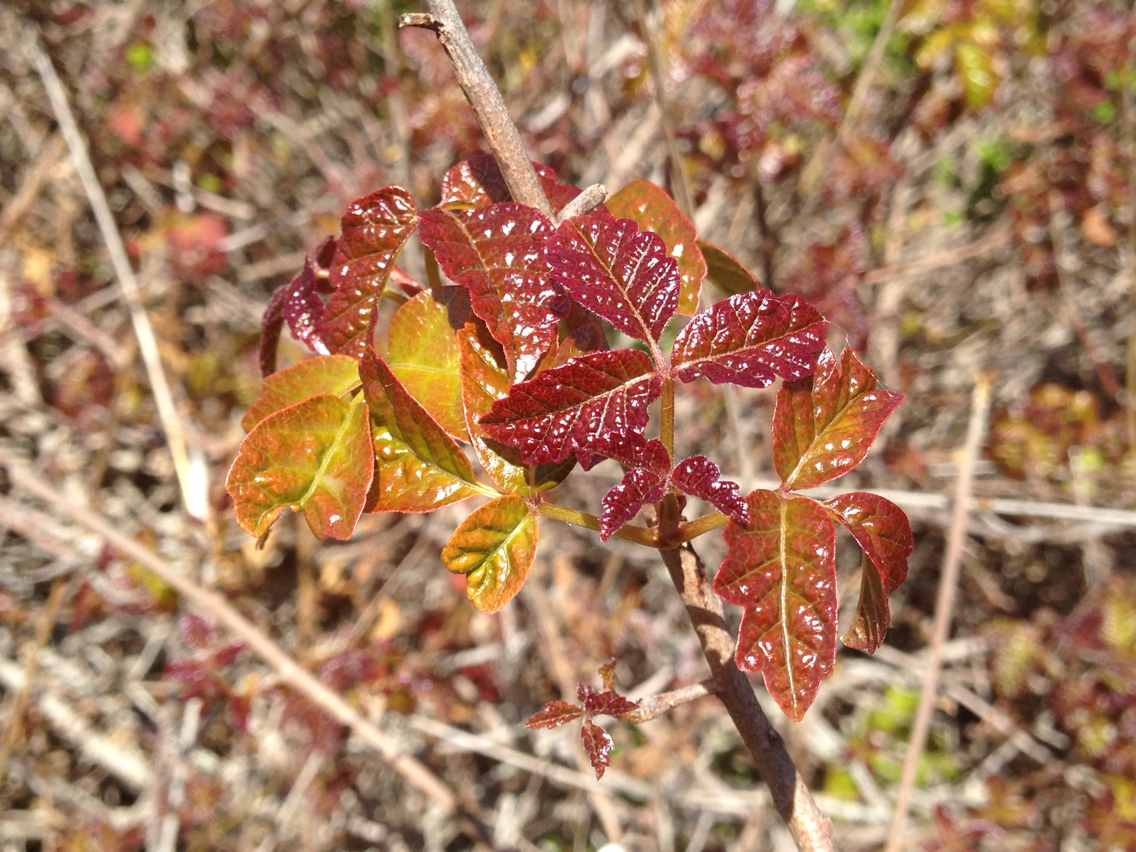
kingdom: Plantae
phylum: Tracheophyta
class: Magnoliopsida
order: Sapindales
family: Anacardiaceae
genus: Toxicodendron
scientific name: Toxicodendron diversilobum
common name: Pacific poison-oak
